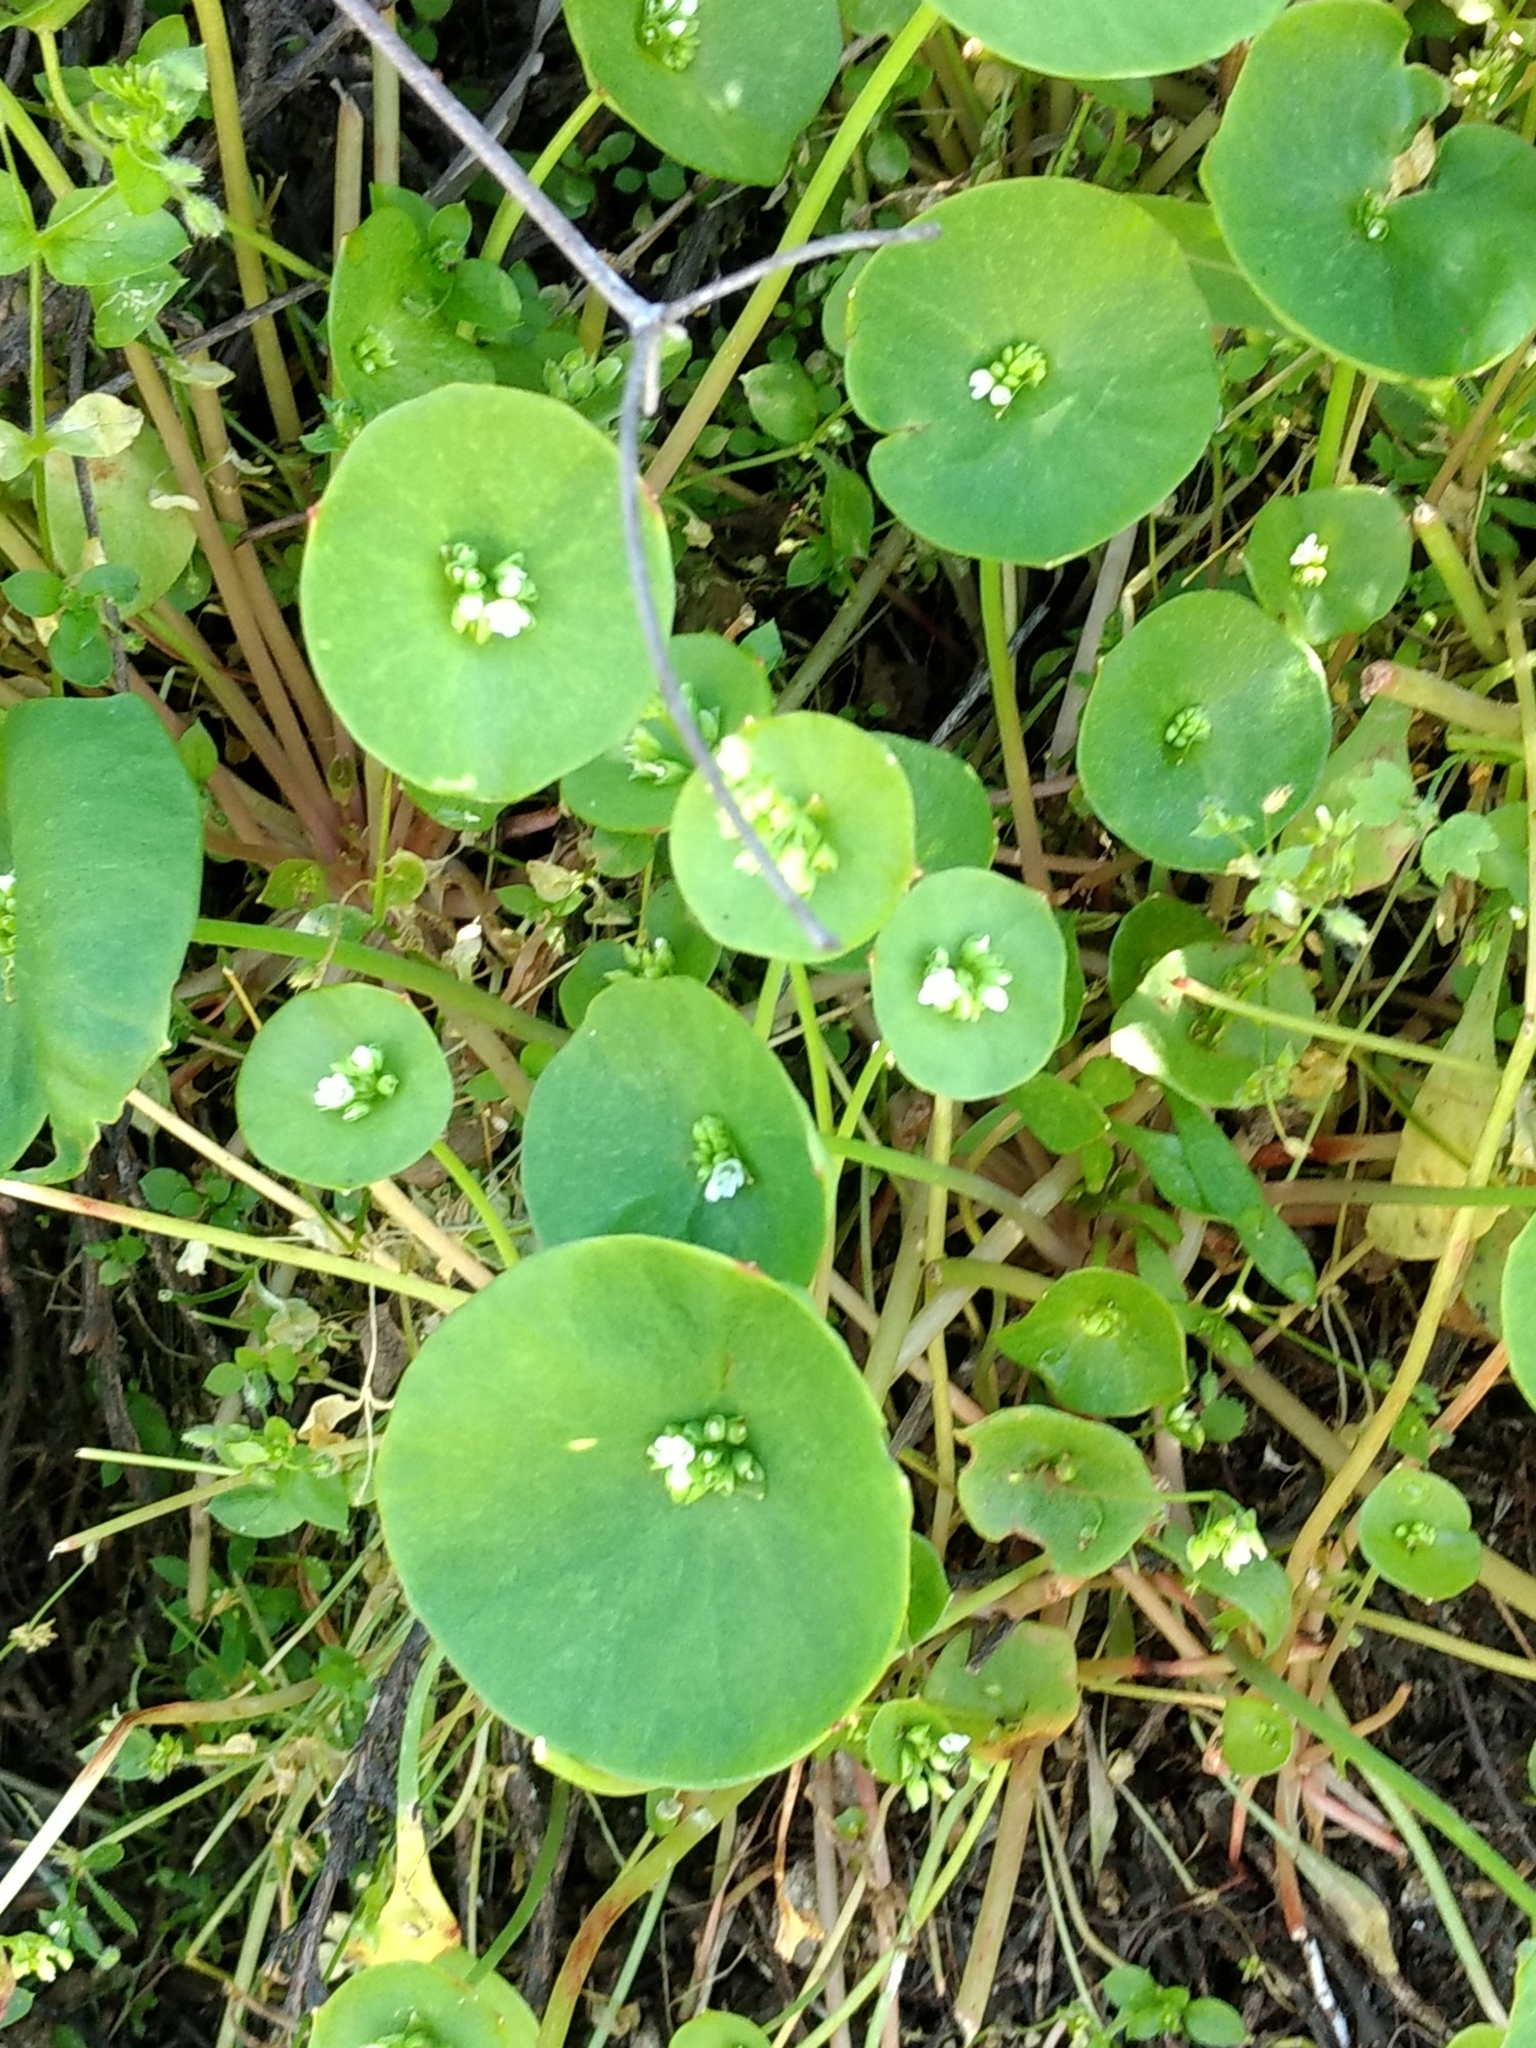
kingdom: Plantae
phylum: Tracheophyta
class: Magnoliopsida
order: Caryophyllales
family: Montiaceae
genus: Claytonia
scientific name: Claytonia perfoliata
